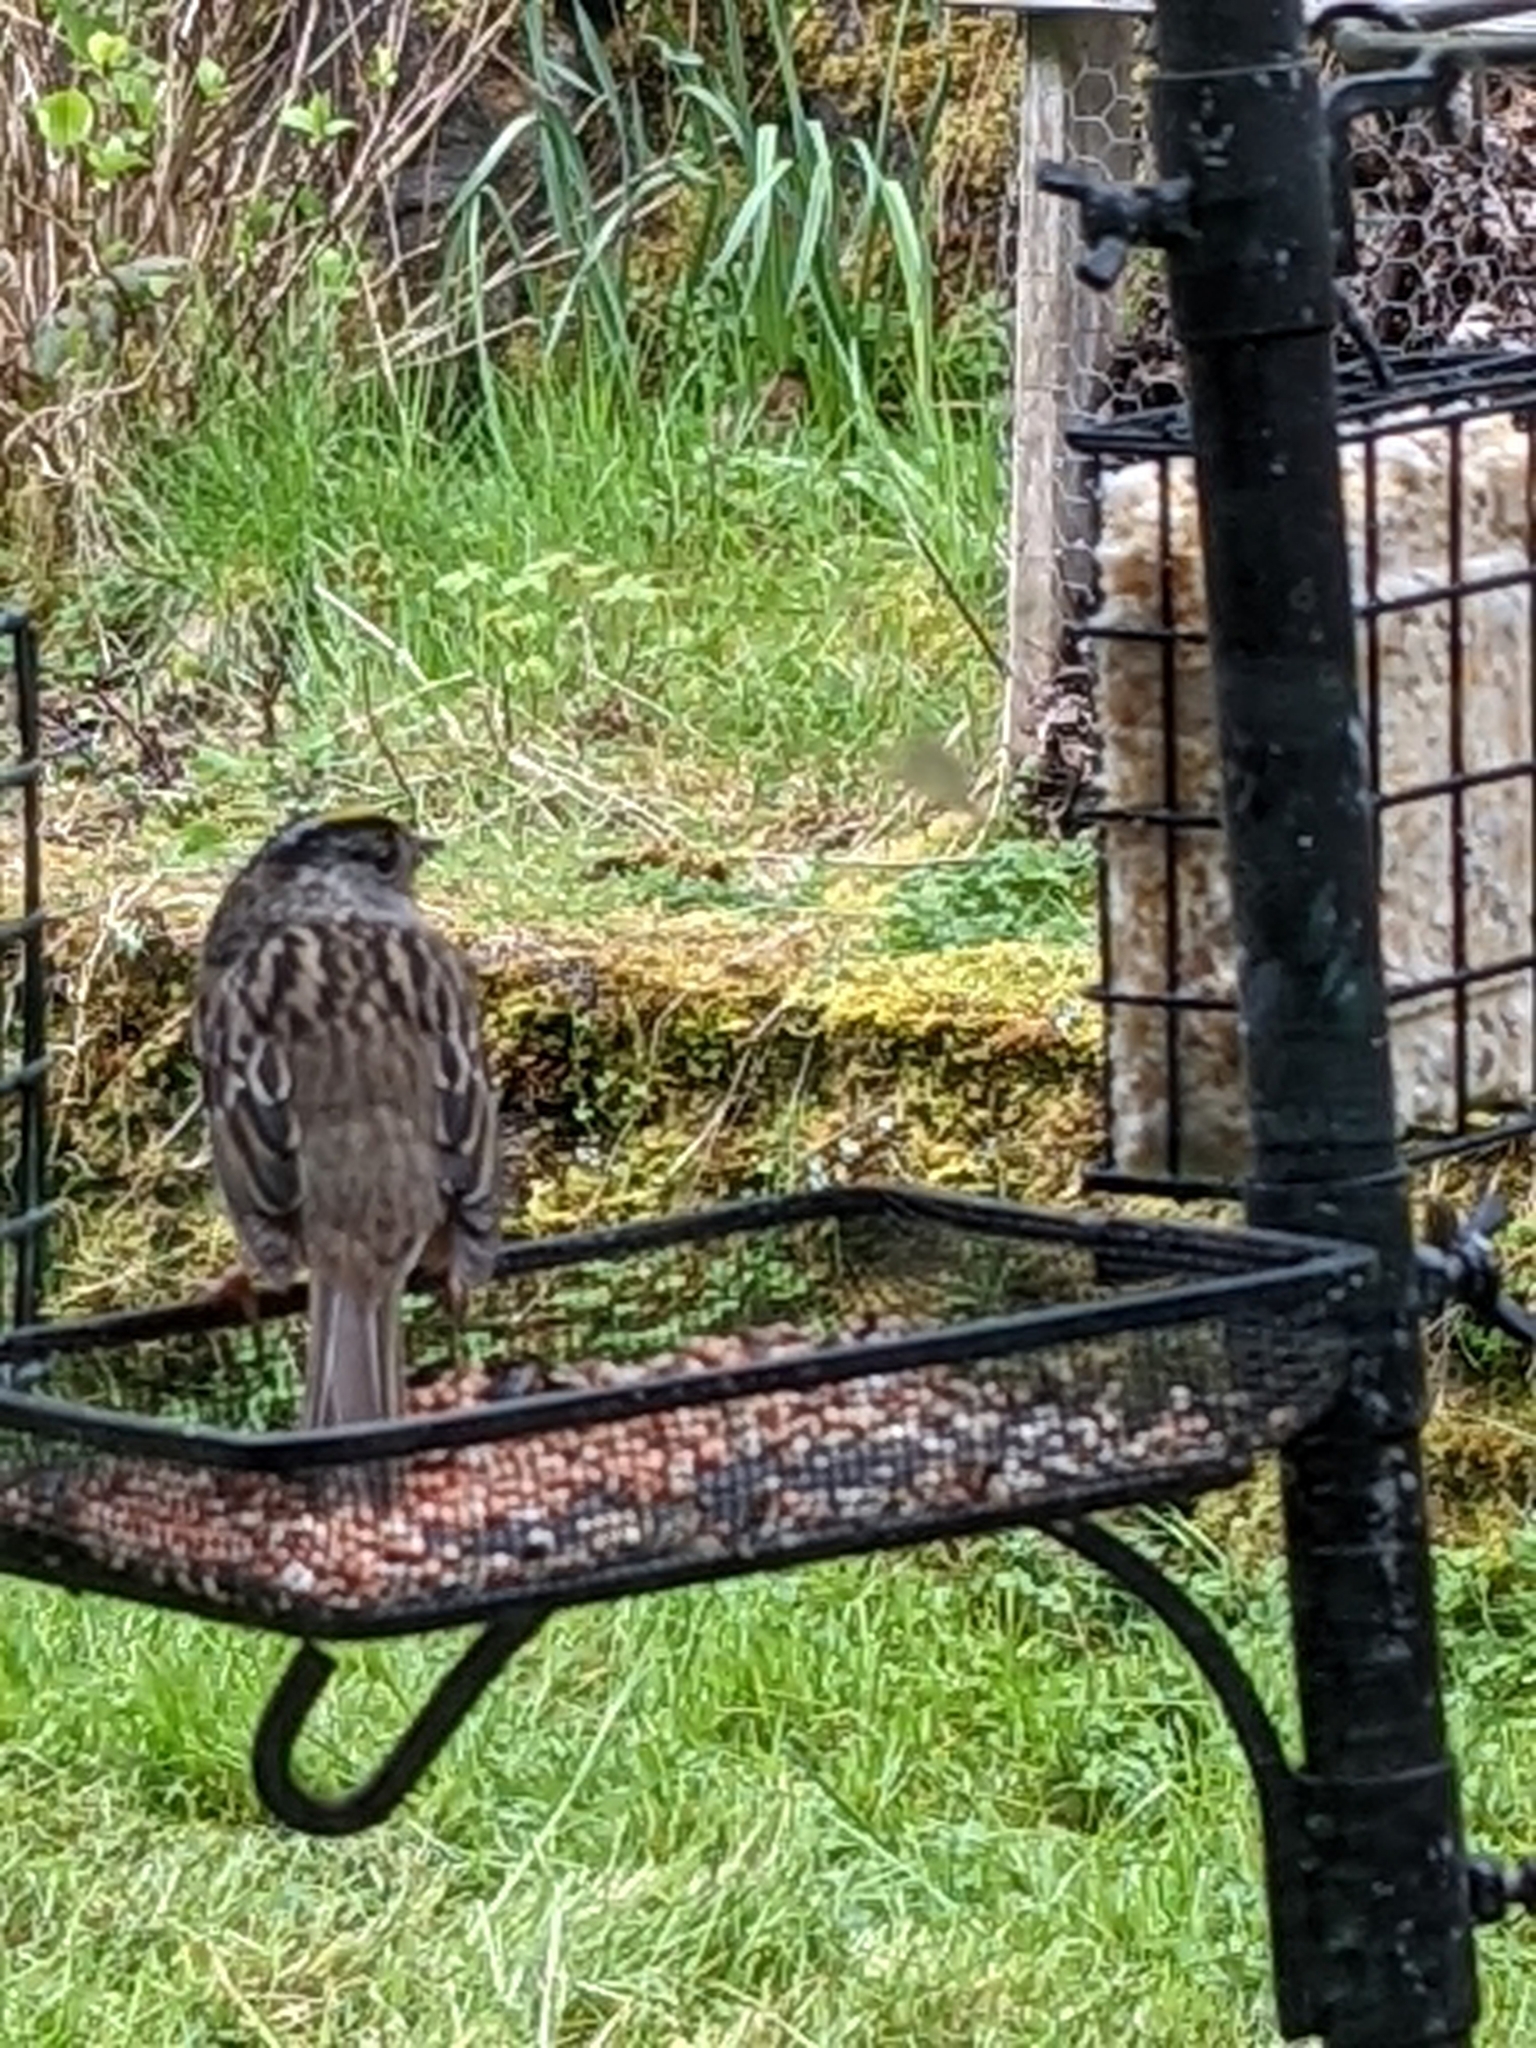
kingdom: Animalia
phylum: Chordata
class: Aves
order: Passeriformes
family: Passerellidae
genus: Zonotrichia
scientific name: Zonotrichia atricapilla
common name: Golden-crowned sparrow
